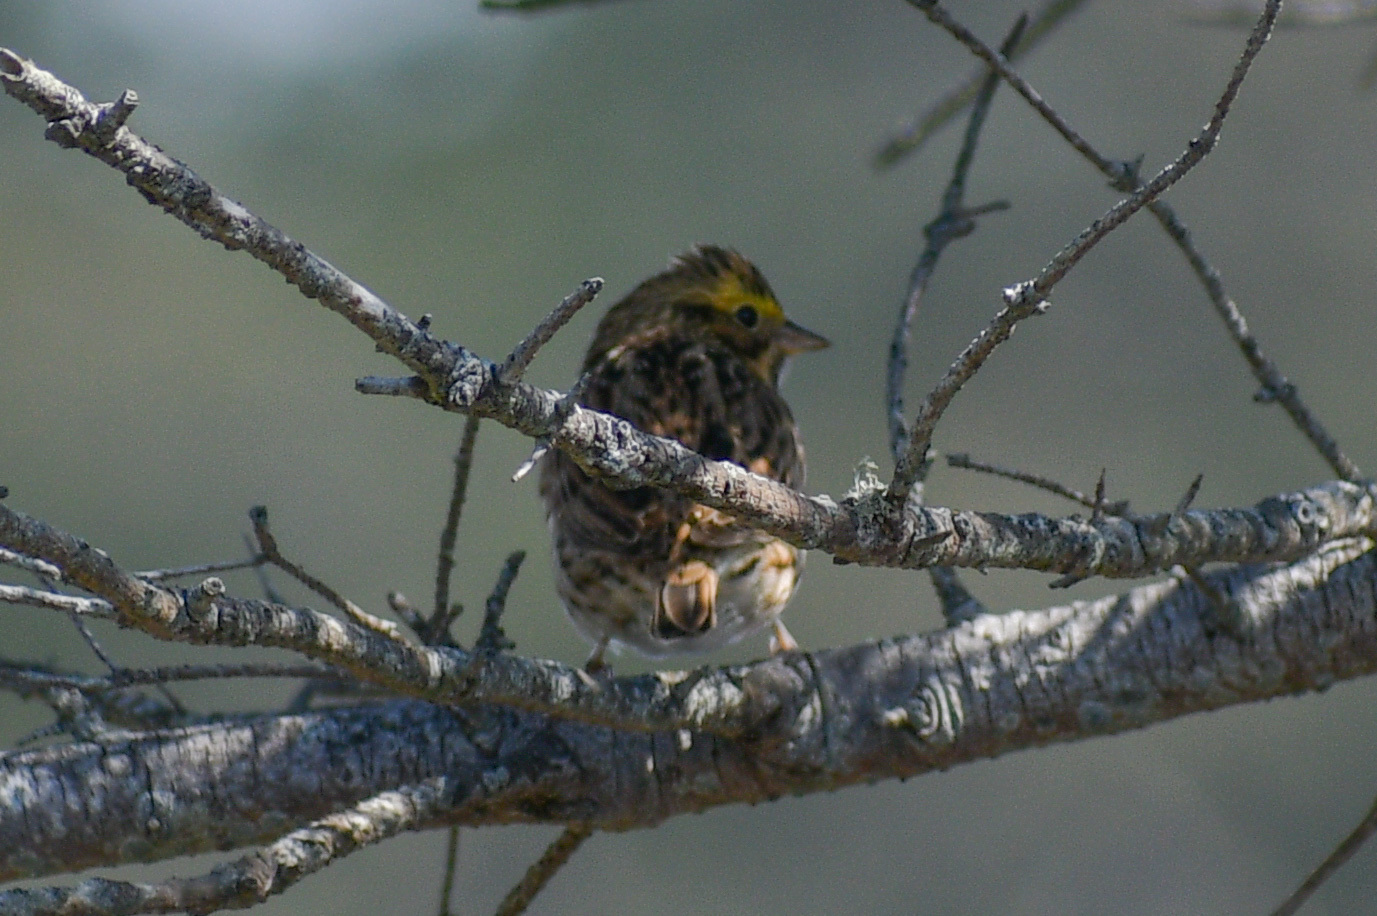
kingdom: Animalia
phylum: Chordata
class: Aves
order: Passeriformes
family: Passerellidae
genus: Passerculus
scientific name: Passerculus sandwichensis
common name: Savannah sparrow
